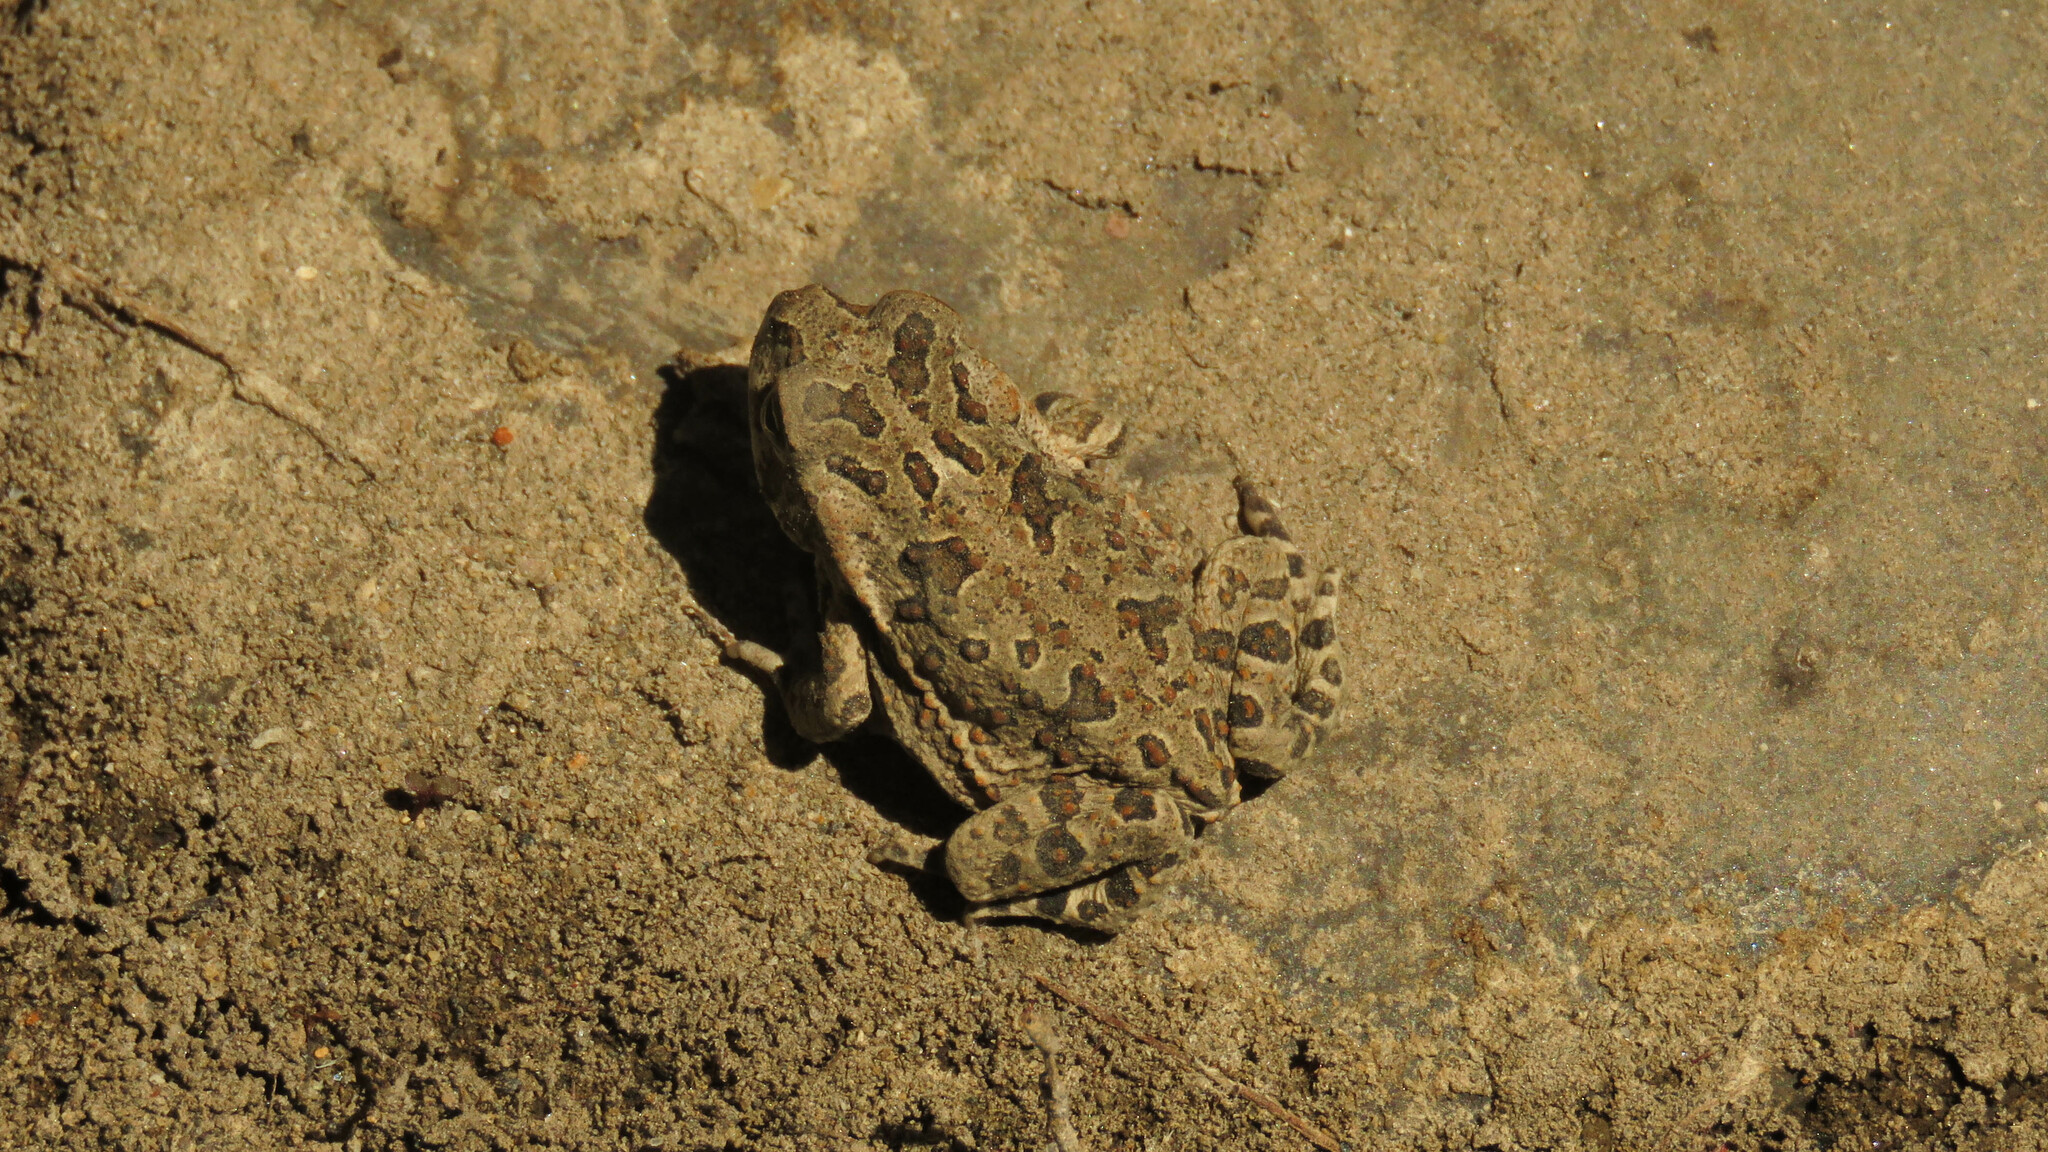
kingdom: Animalia
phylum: Chordata
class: Amphibia
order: Anura
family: Bufonidae
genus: Rhinella
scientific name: Rhinella arenarum
